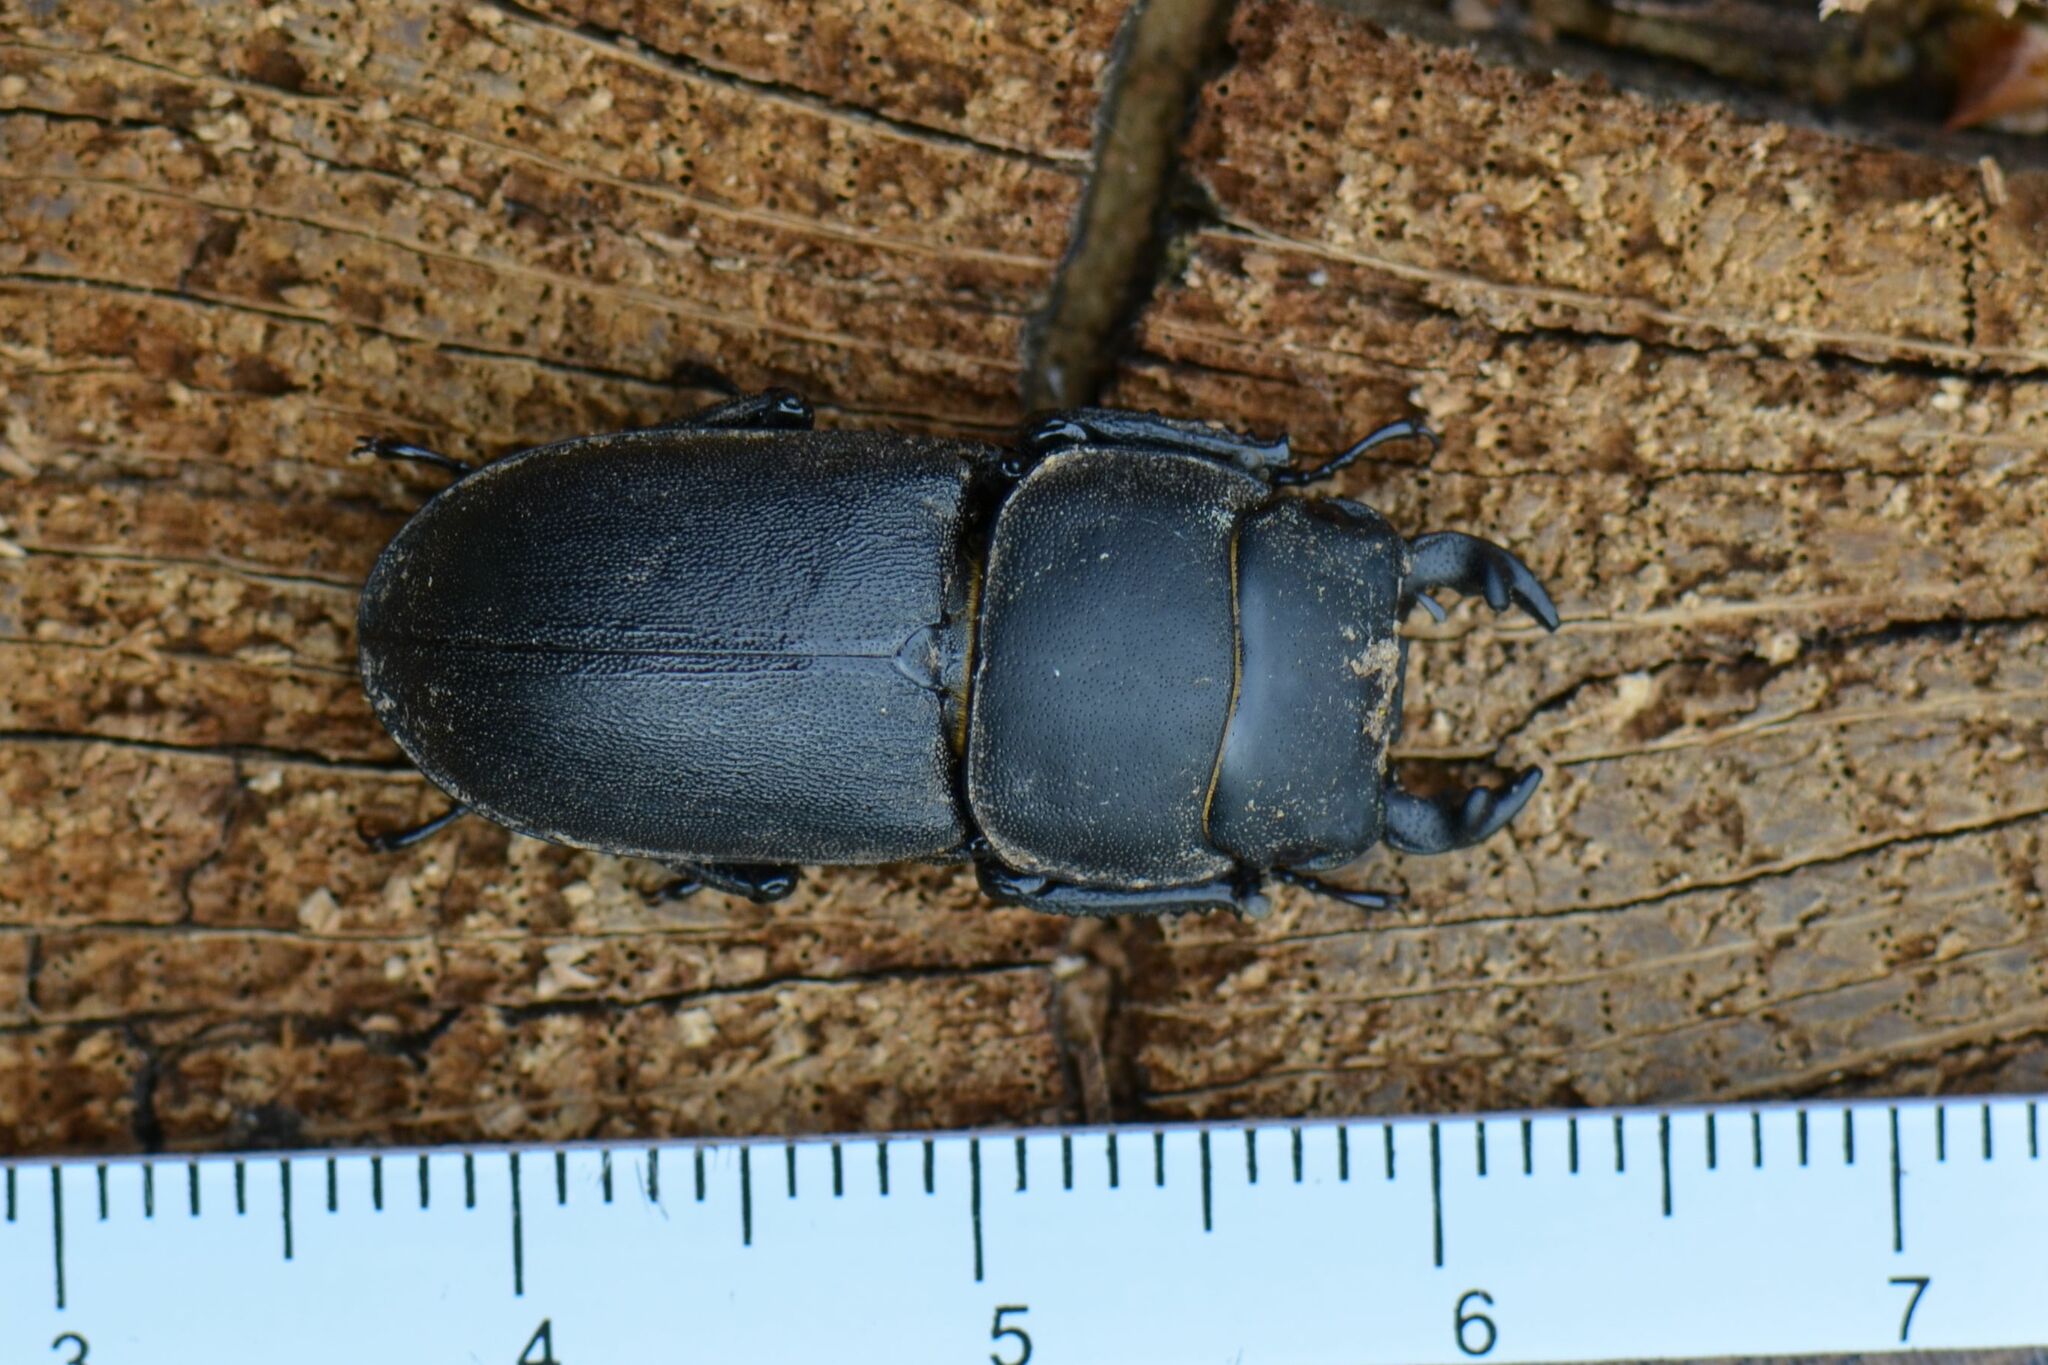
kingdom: Animalia
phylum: Arthropoda
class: Insecta
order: Coleoptera
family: Lucanidae
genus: Dorcus
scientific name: Dorcus parallelipipedus
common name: Lesser stag beetle
